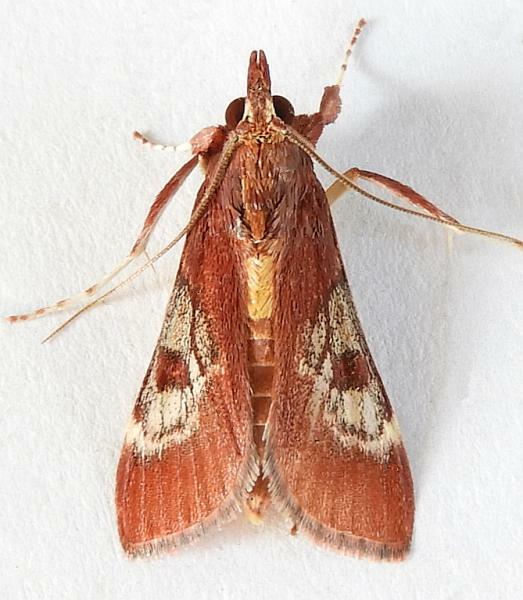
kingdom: Animalia
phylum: Arthropoda
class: Insecta
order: Lepidoptera
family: Crambidae
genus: Omiodes
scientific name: Omiodes stigmosalis
